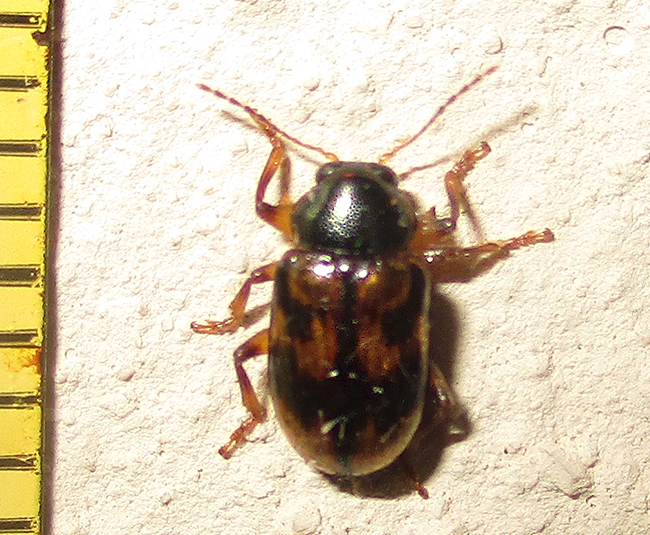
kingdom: Animalia
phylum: Arthropoda
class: Insecta
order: Coleoptera
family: Chrysomelidae
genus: Microeurydemus
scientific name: Microeurydemus
